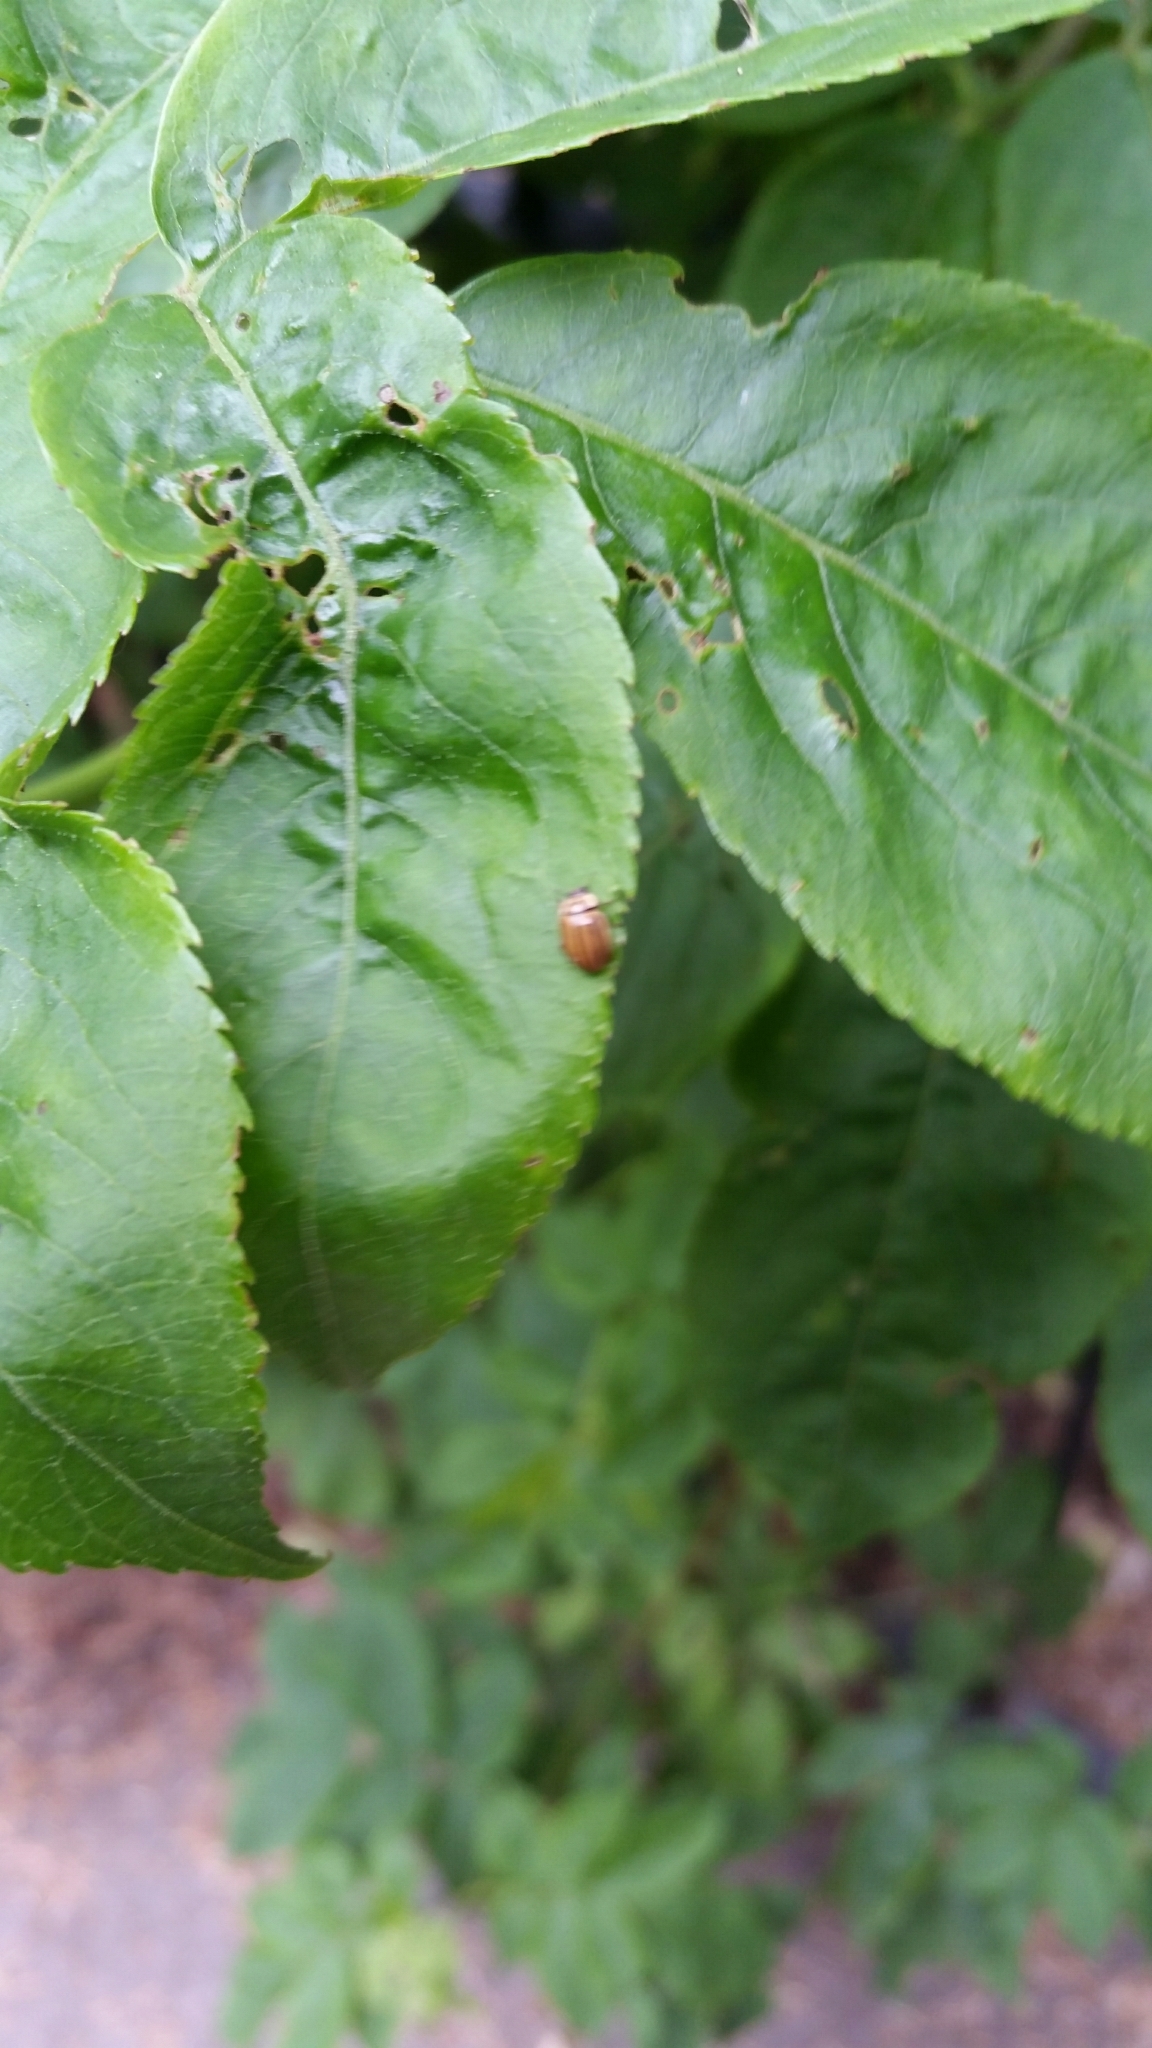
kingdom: Animalia
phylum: Arthropoda
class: Insecta
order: Coleoptera
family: Coccinellidae
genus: Aphidecta
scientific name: Aphidecta obliterata
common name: Larch ladybird
